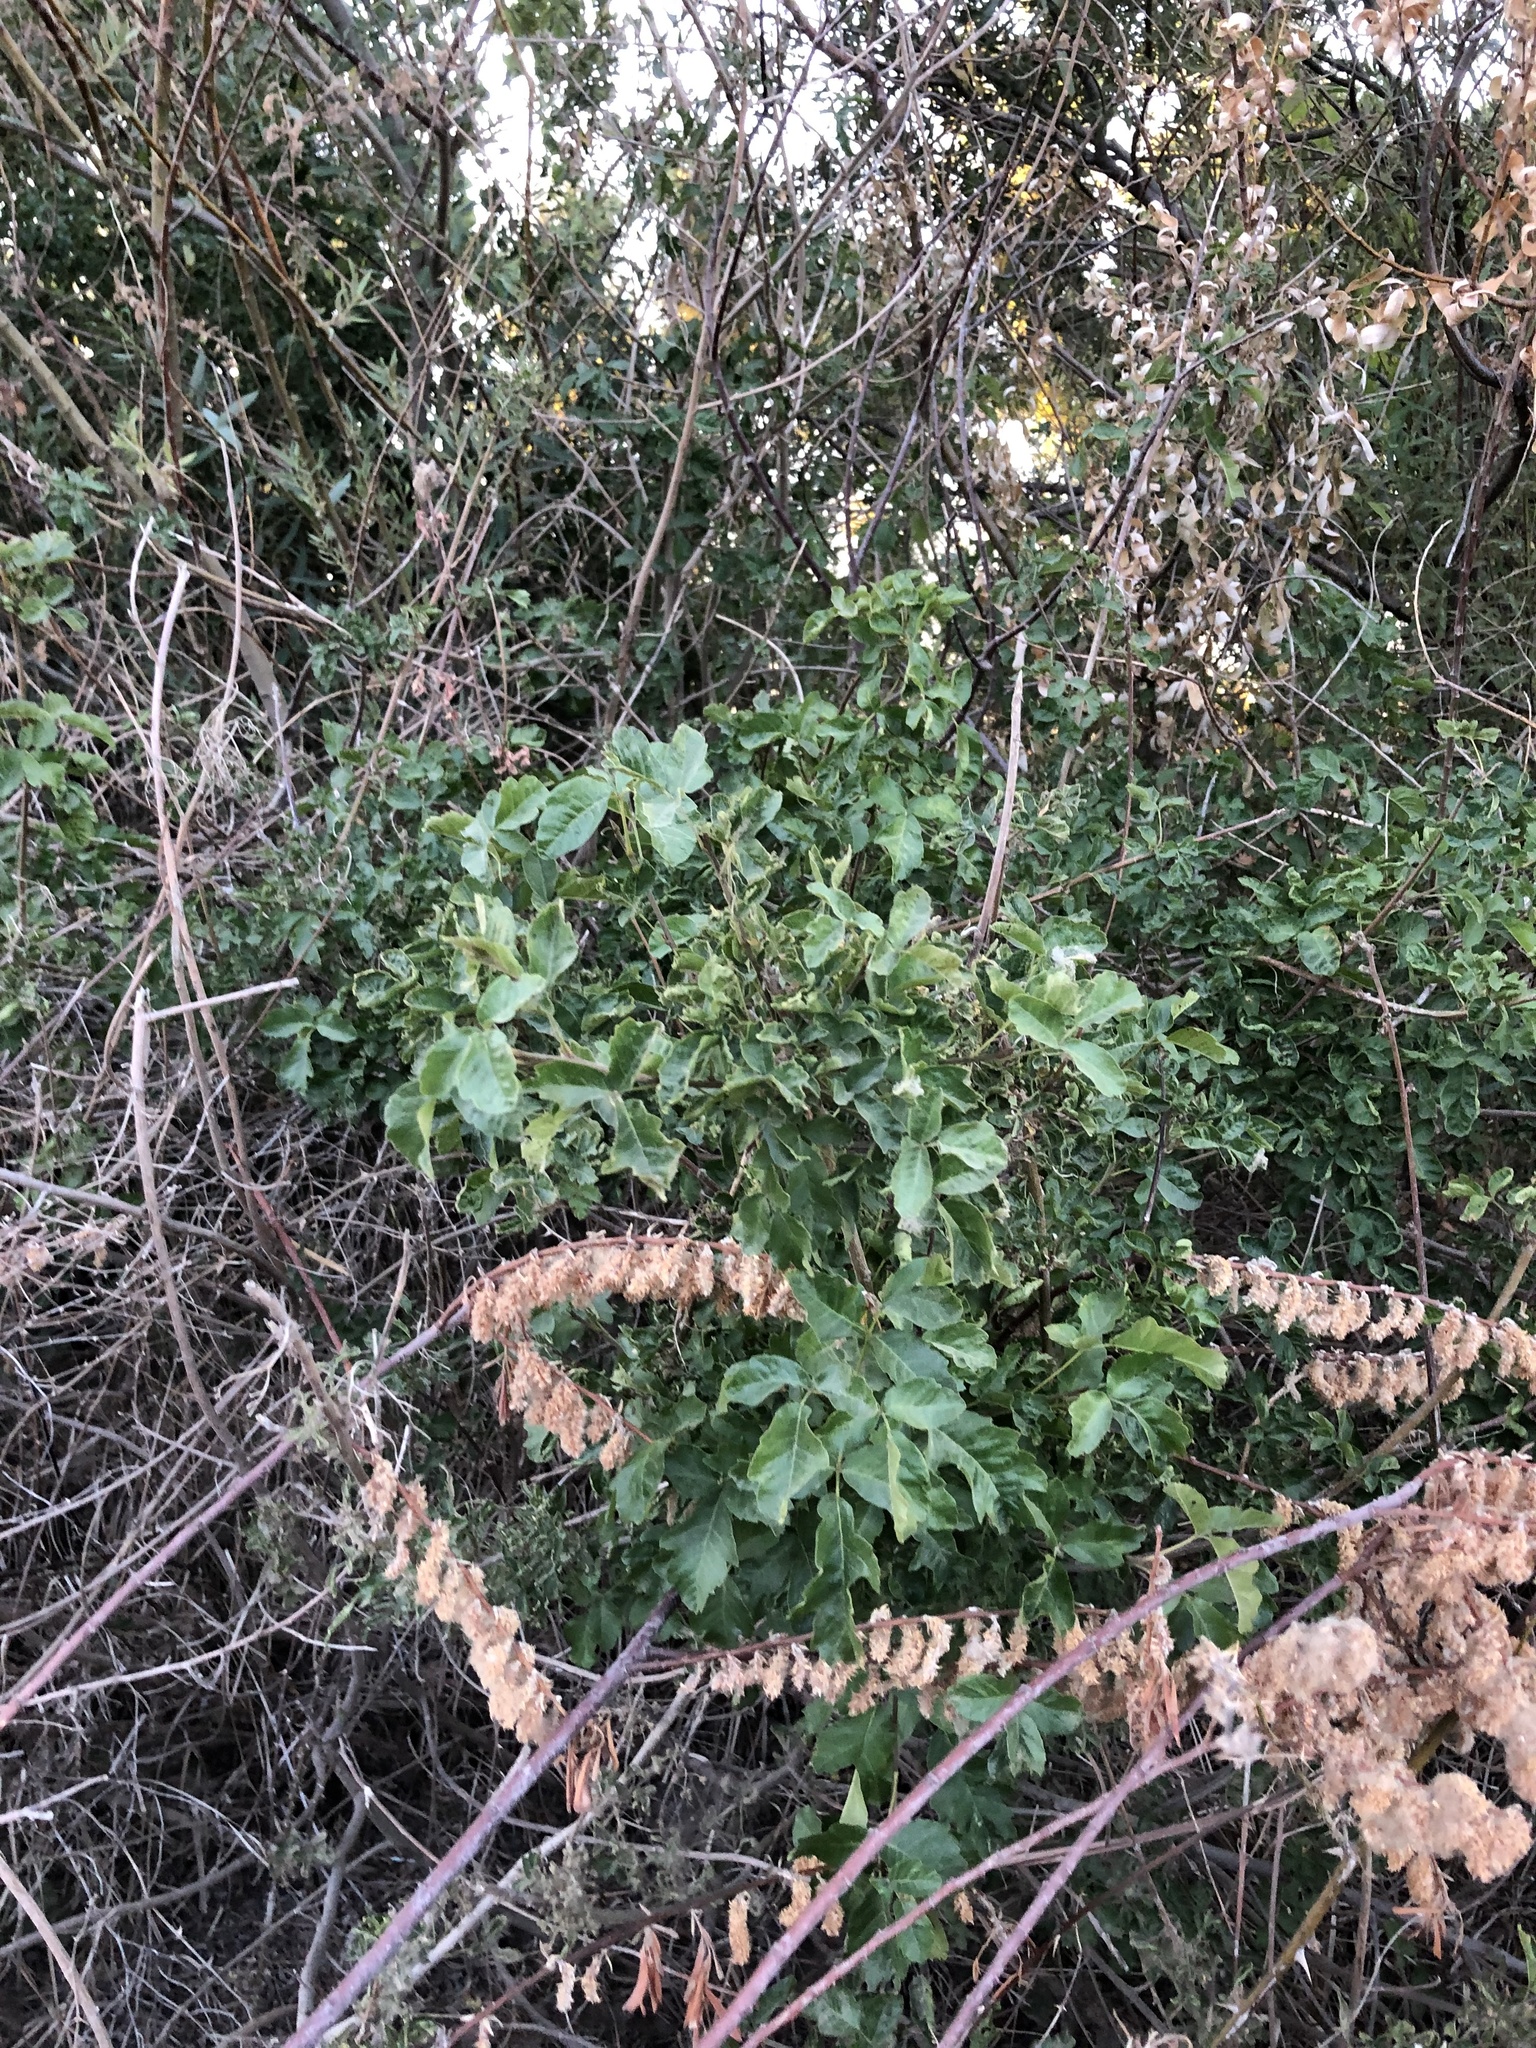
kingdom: Plantae
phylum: Tracheophyta
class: Magnoliopsida
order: Sapindales
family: Anacardiaceae
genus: Toxicodendron
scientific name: Toxicodendron diversilobum
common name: Pacific poison-oak
